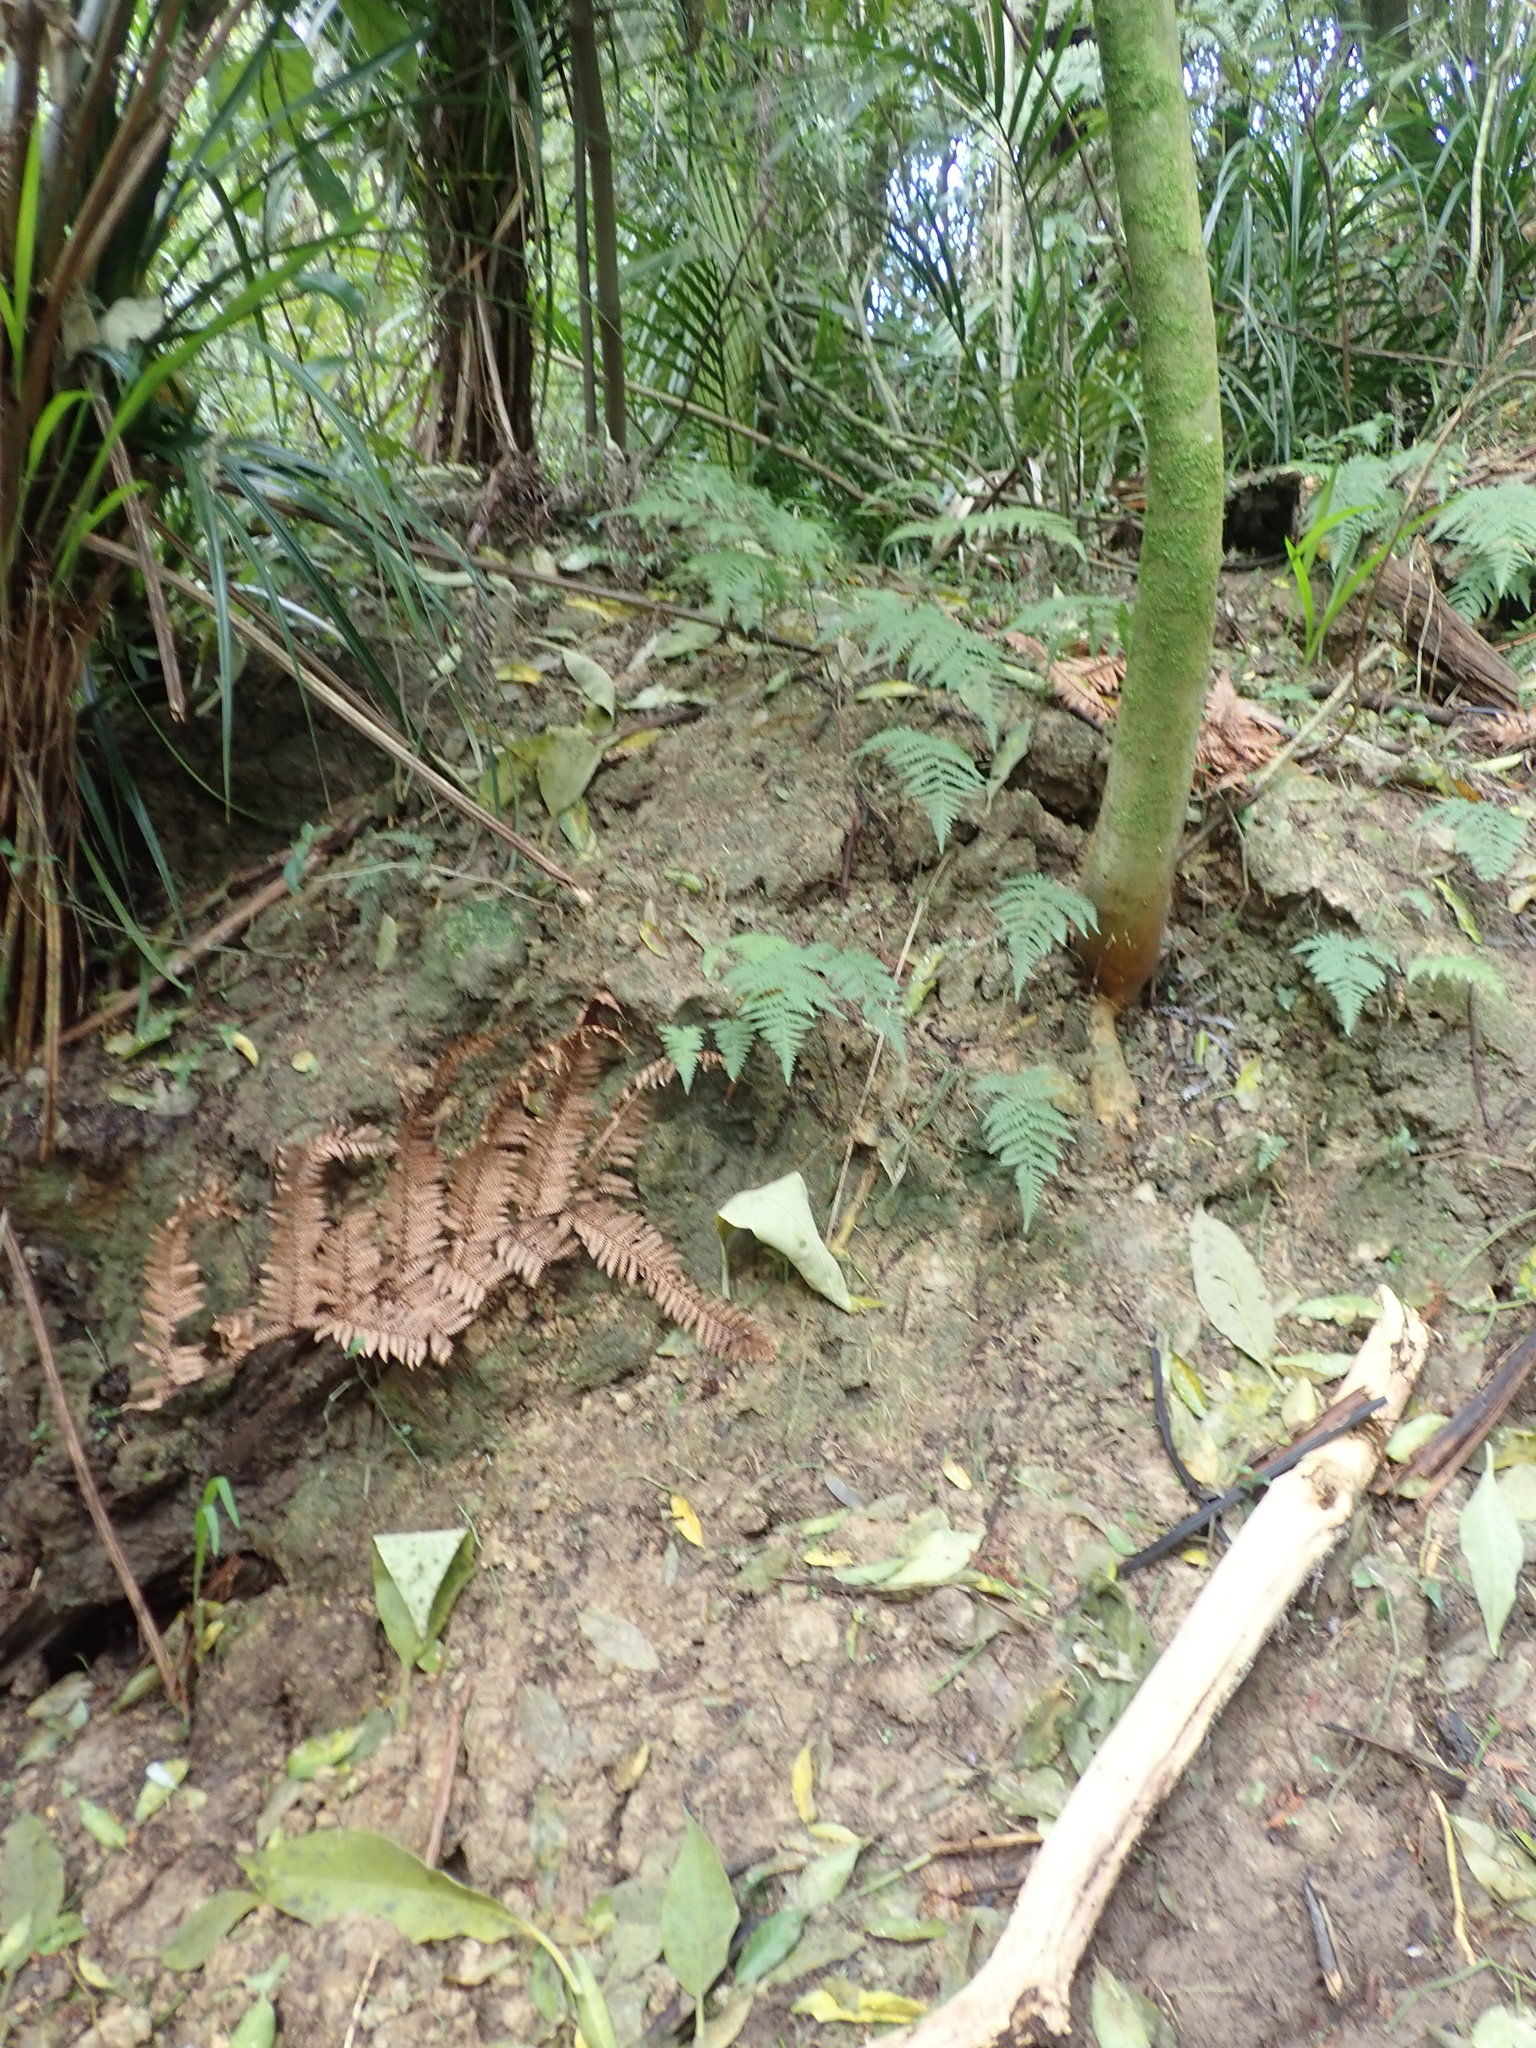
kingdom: Plantae
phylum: Tracheophyta
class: Liliopsida
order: Arecales
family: Arecaceae
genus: Rhopalostylis
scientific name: Rhopalostylis sapida
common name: Feather-duster palm
